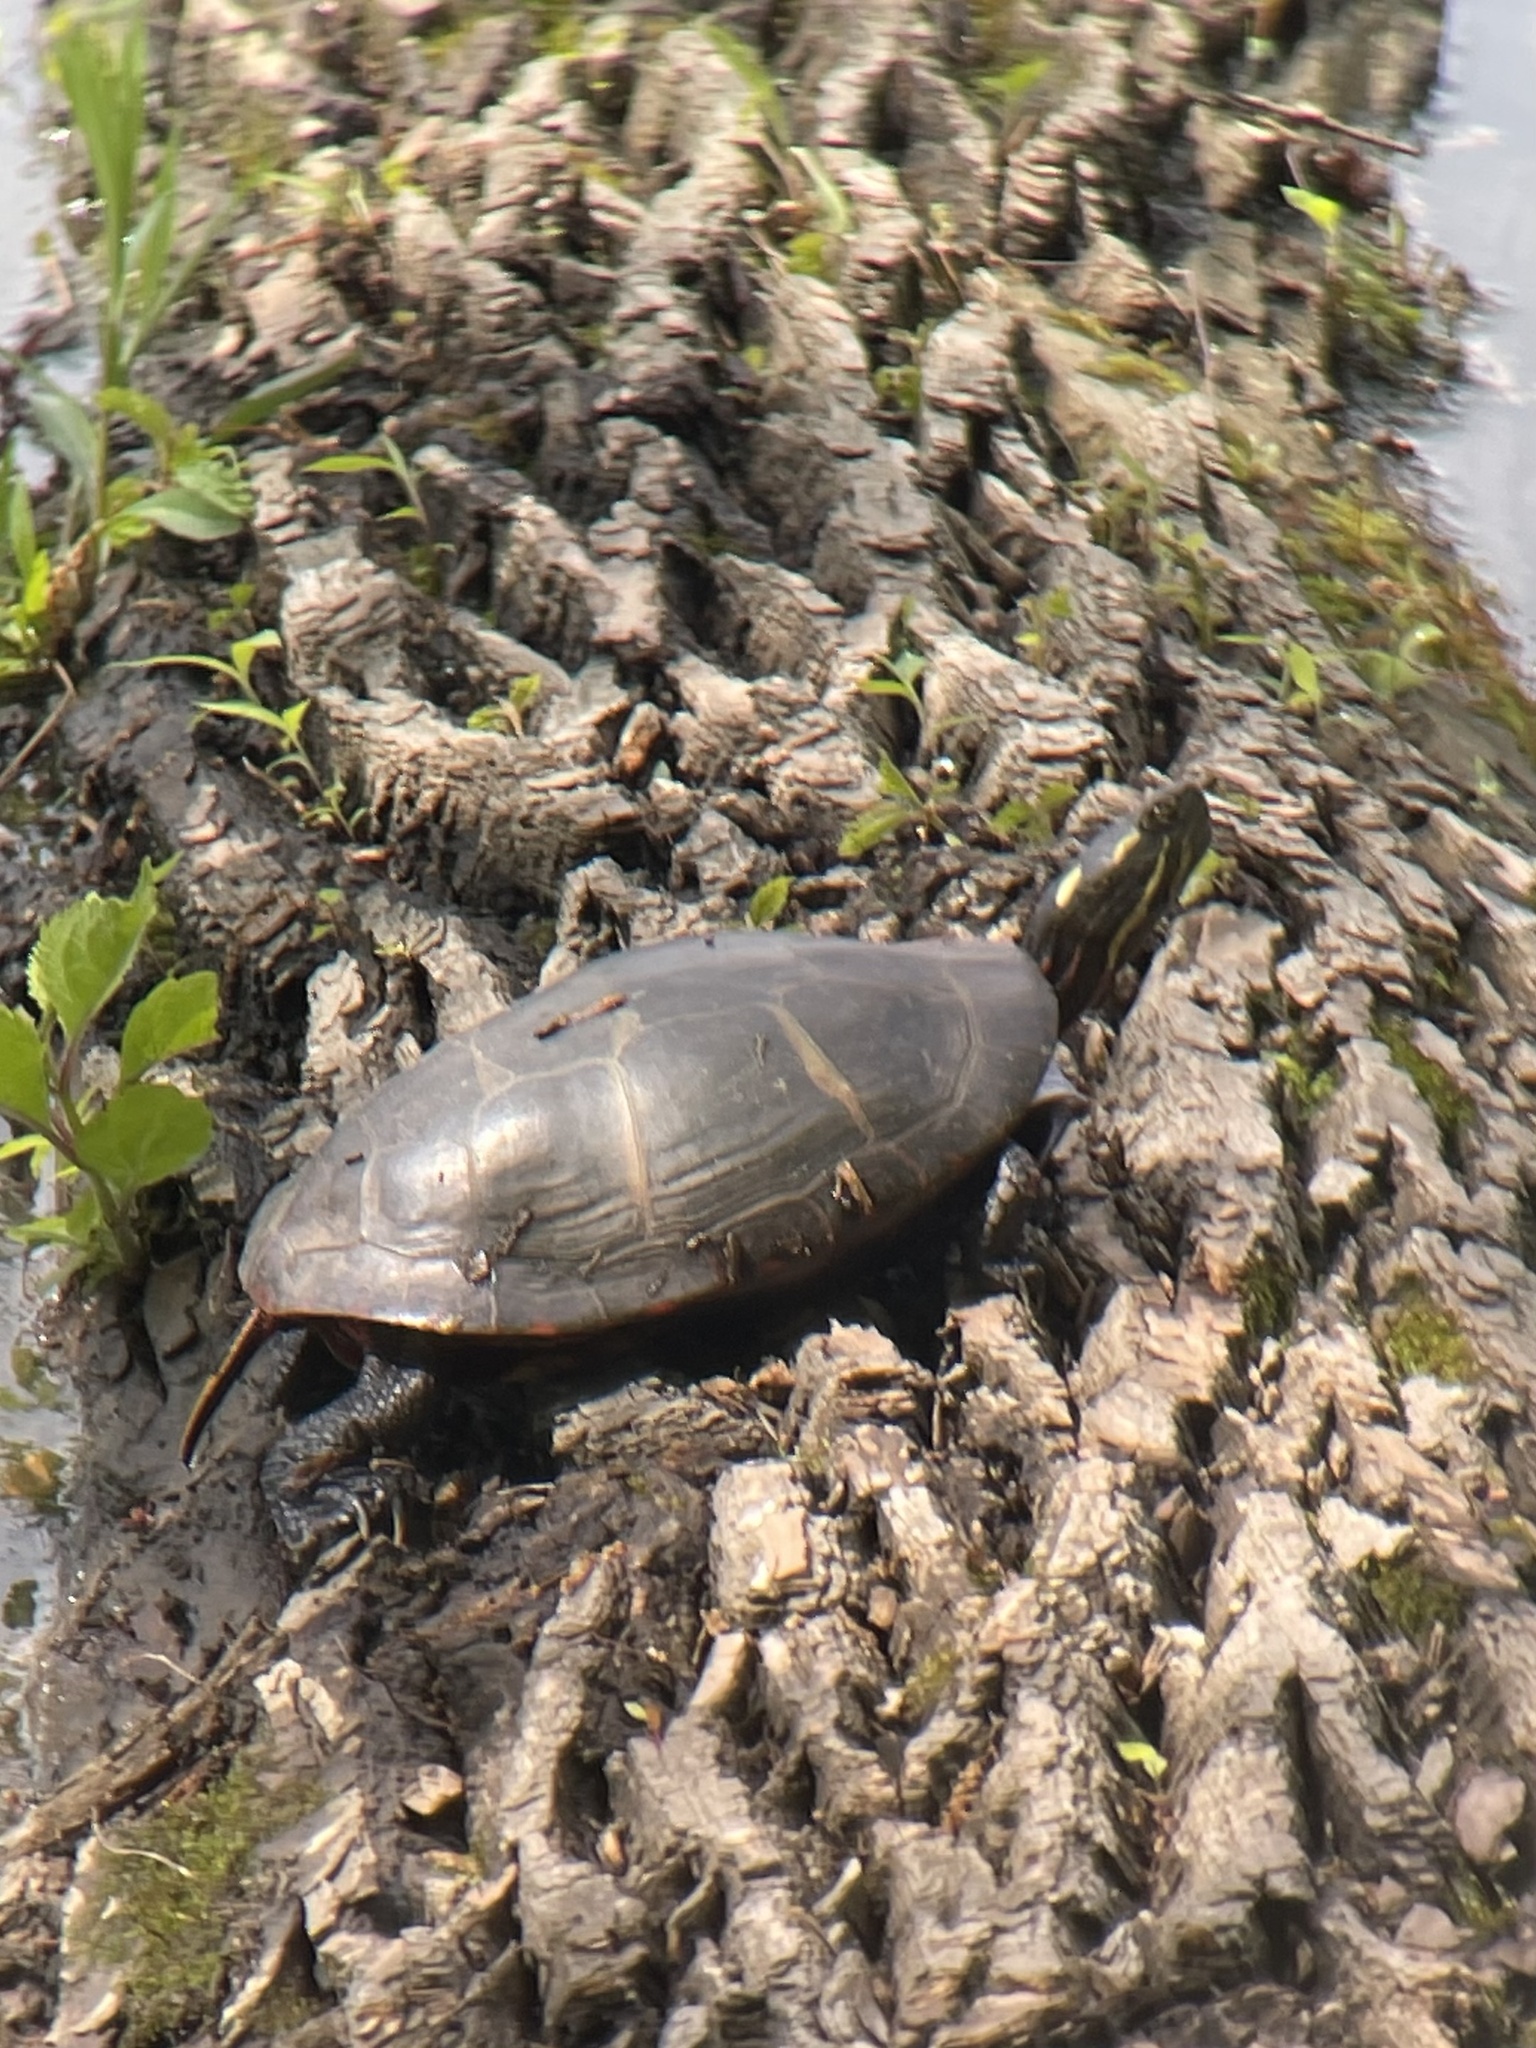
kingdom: Animalia
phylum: Chordata
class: Testudines
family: Emydidae
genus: Chrysemys
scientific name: Chrysemys picta
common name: Painted turtle
